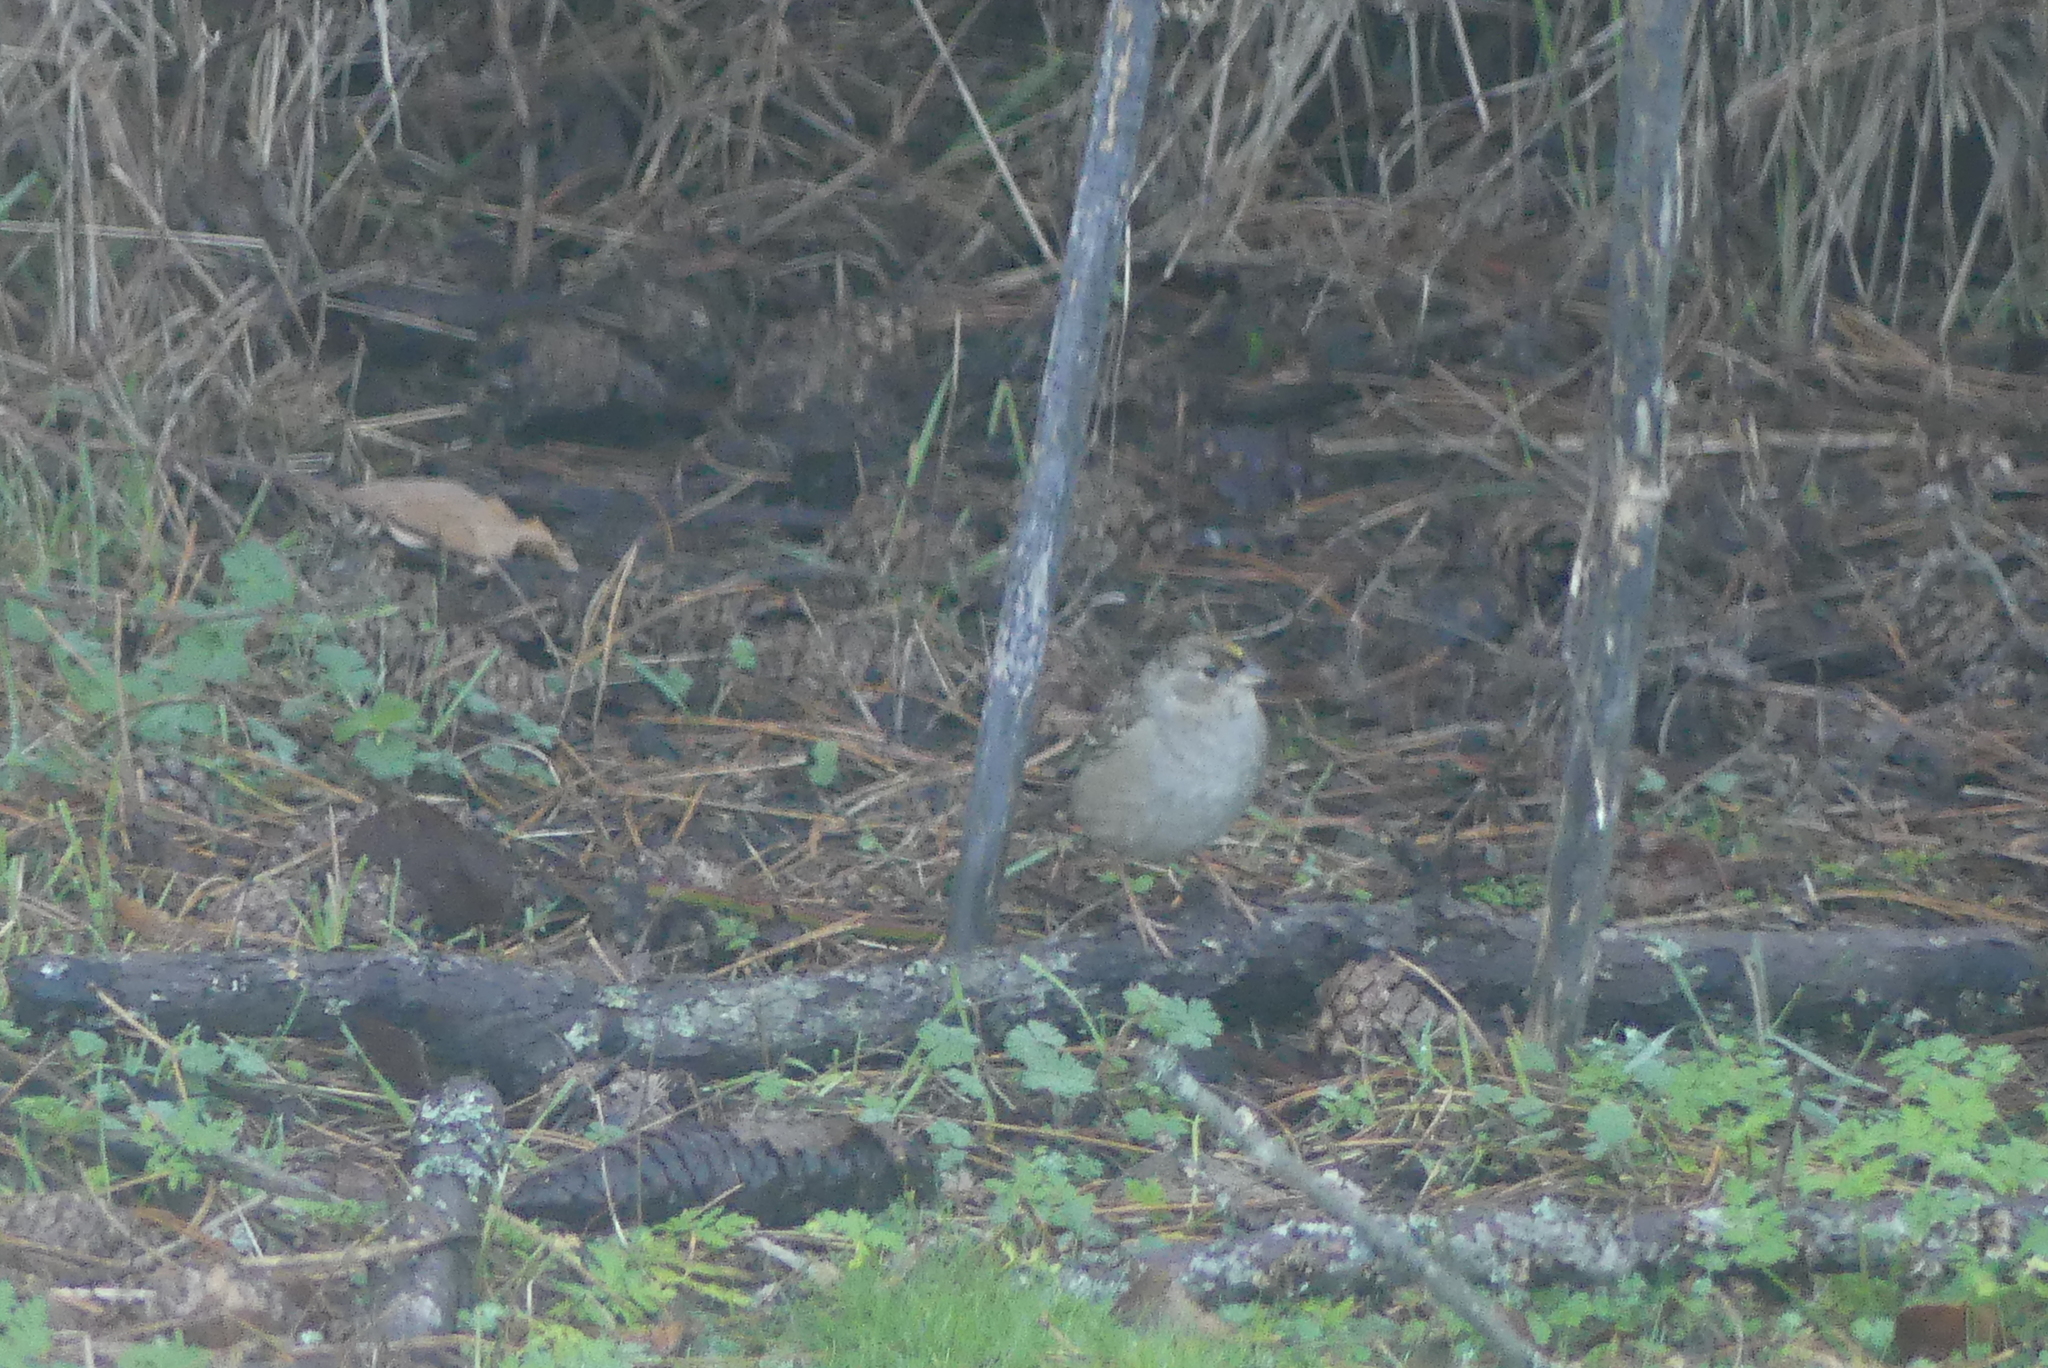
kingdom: Animalia
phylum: Chordata
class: Aves
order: Passeriformes
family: Passerellidae
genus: Zonotrichia
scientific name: Zonotrichia atricapilla
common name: Golden-crowned sparrow
